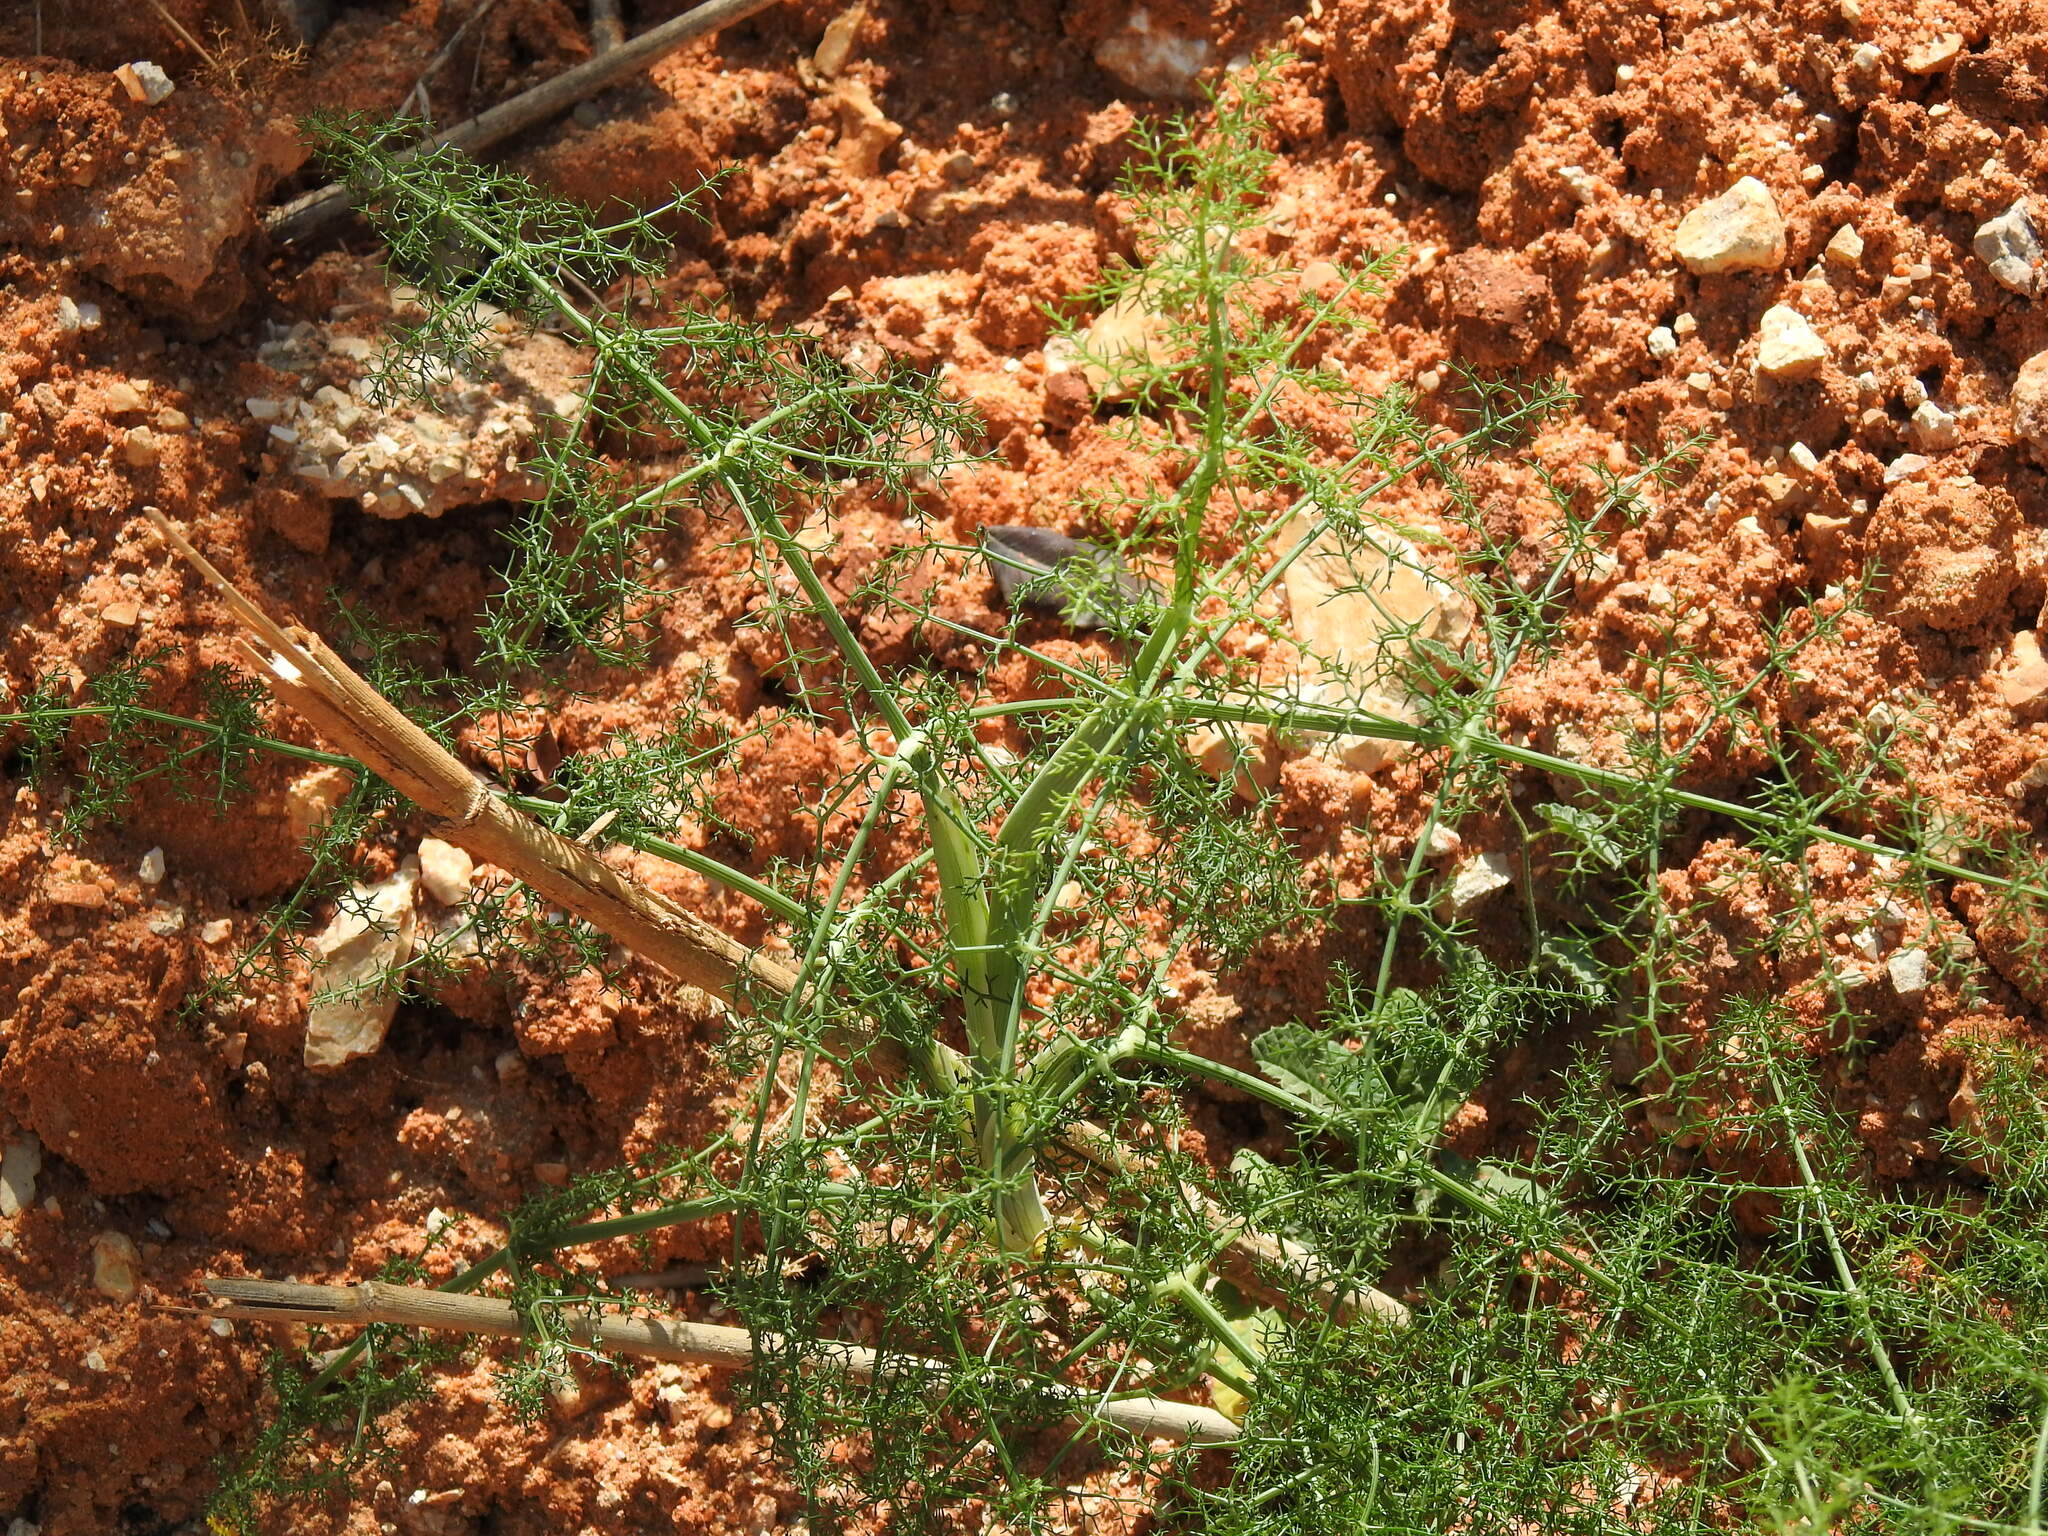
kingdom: Plantae
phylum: Tracheophyta
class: Magnoliopsida
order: Apiales
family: Apiaceae
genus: Foeniculum
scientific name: Foeniculum vulgare
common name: Fennel
